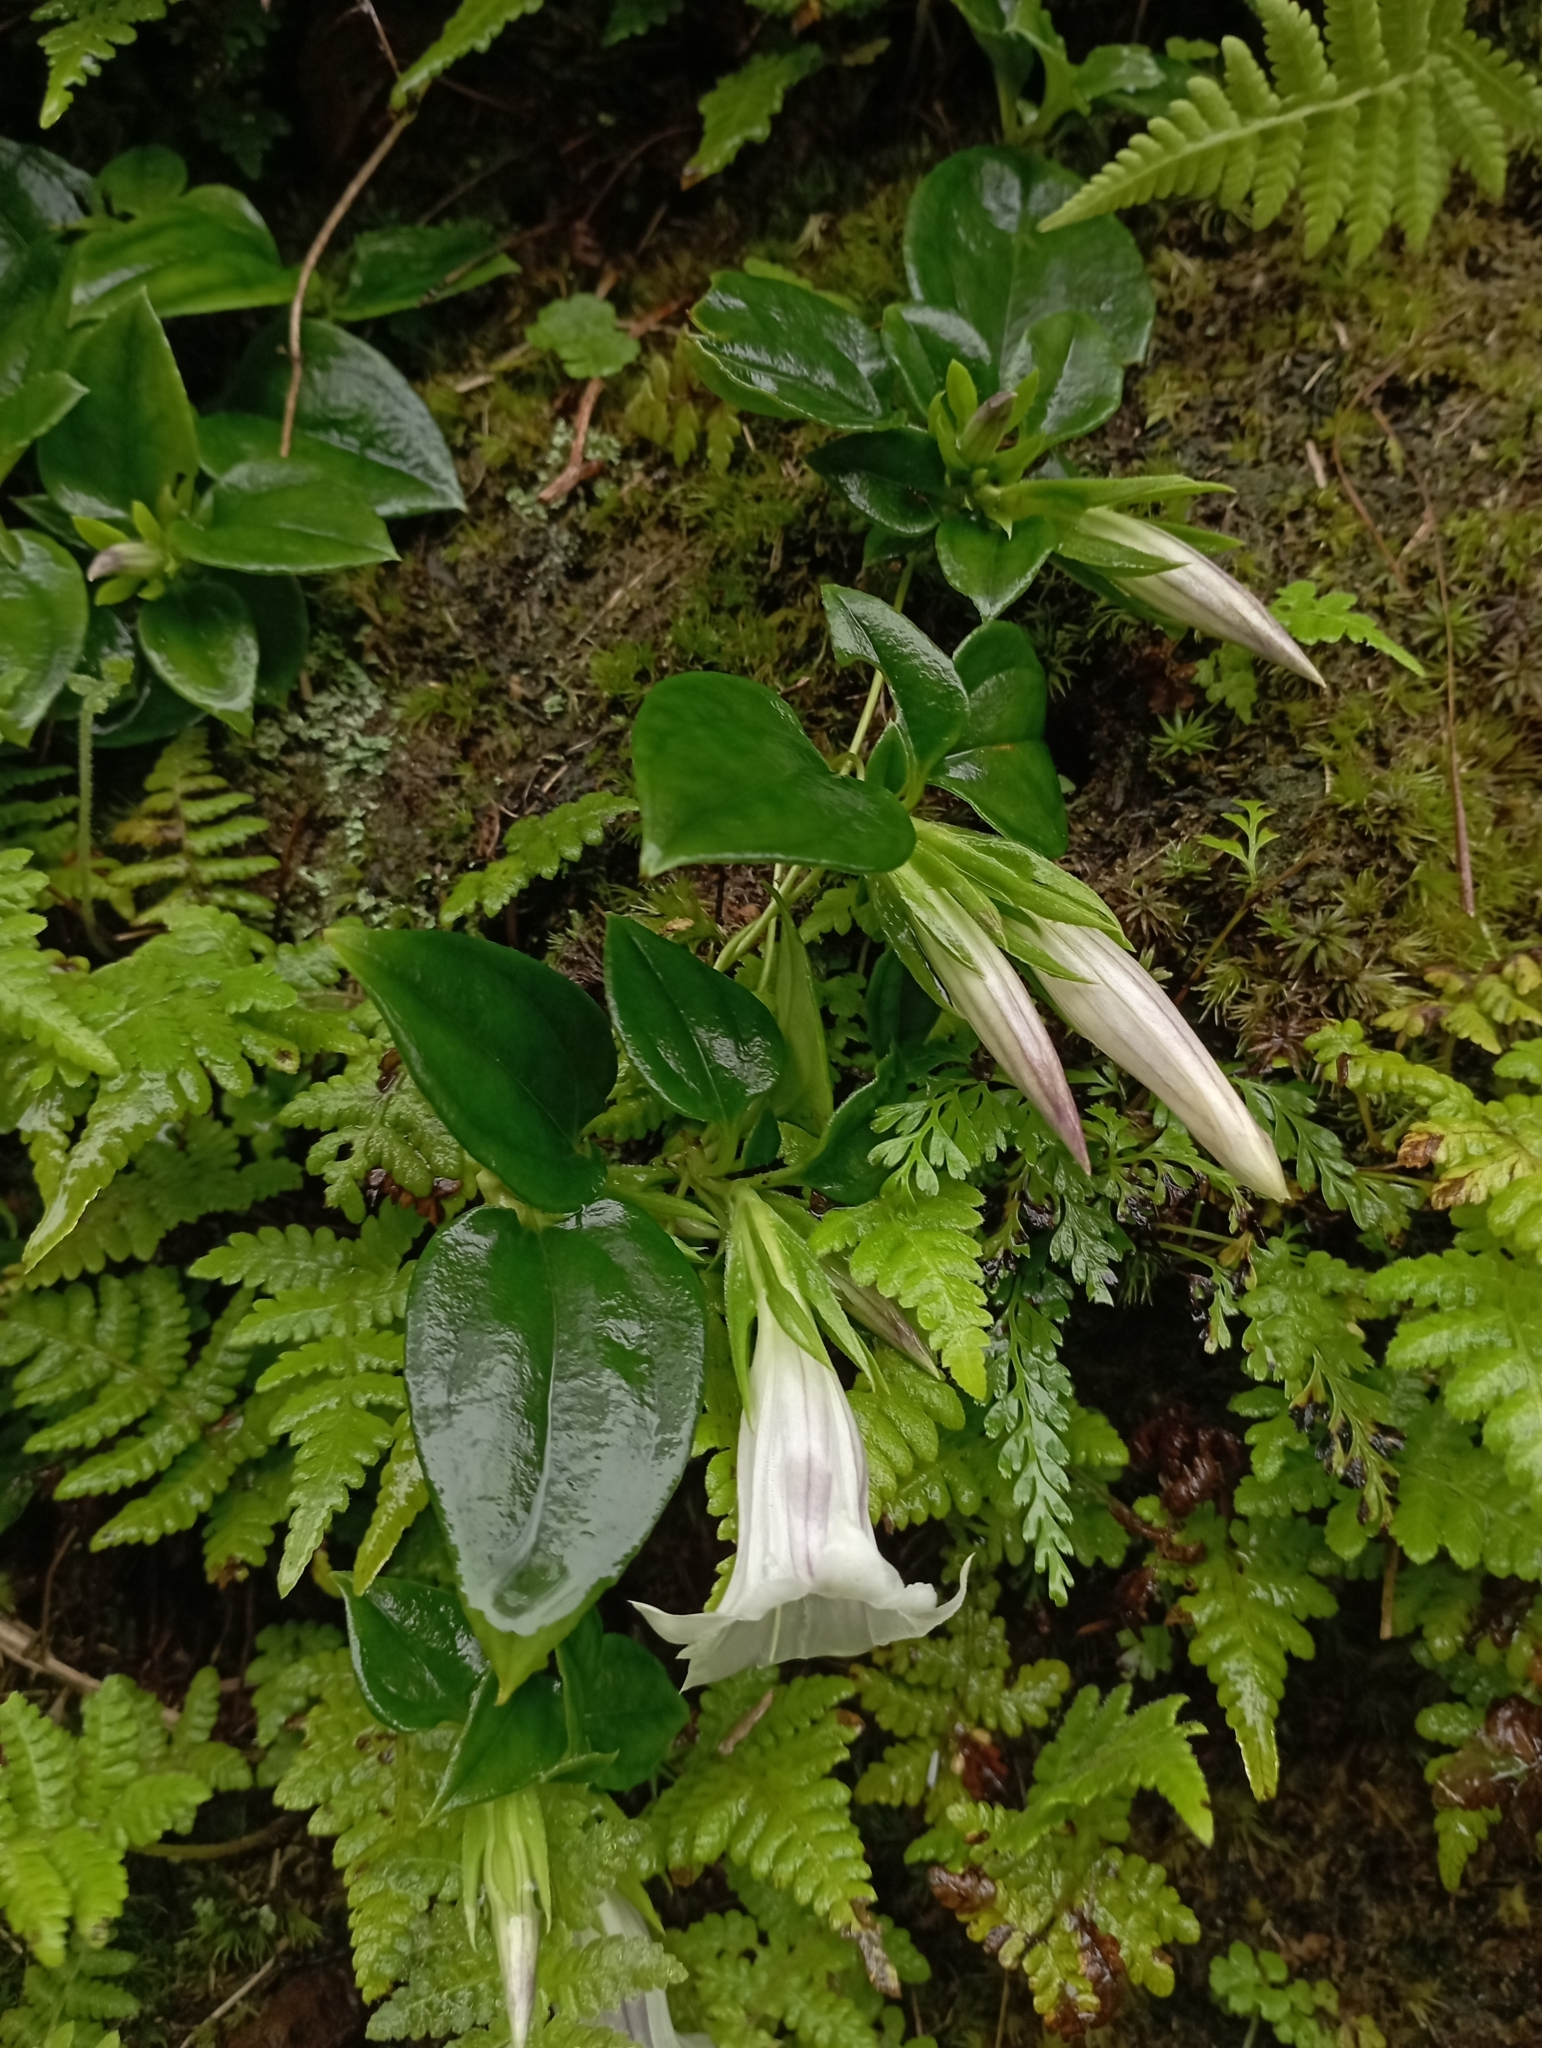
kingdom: Plantae
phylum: Tracheophyta
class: Magnoliopsida
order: Gentianales
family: Gentianaceae
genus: Tripterospermum
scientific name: Tripterospermum alutaceifolium
